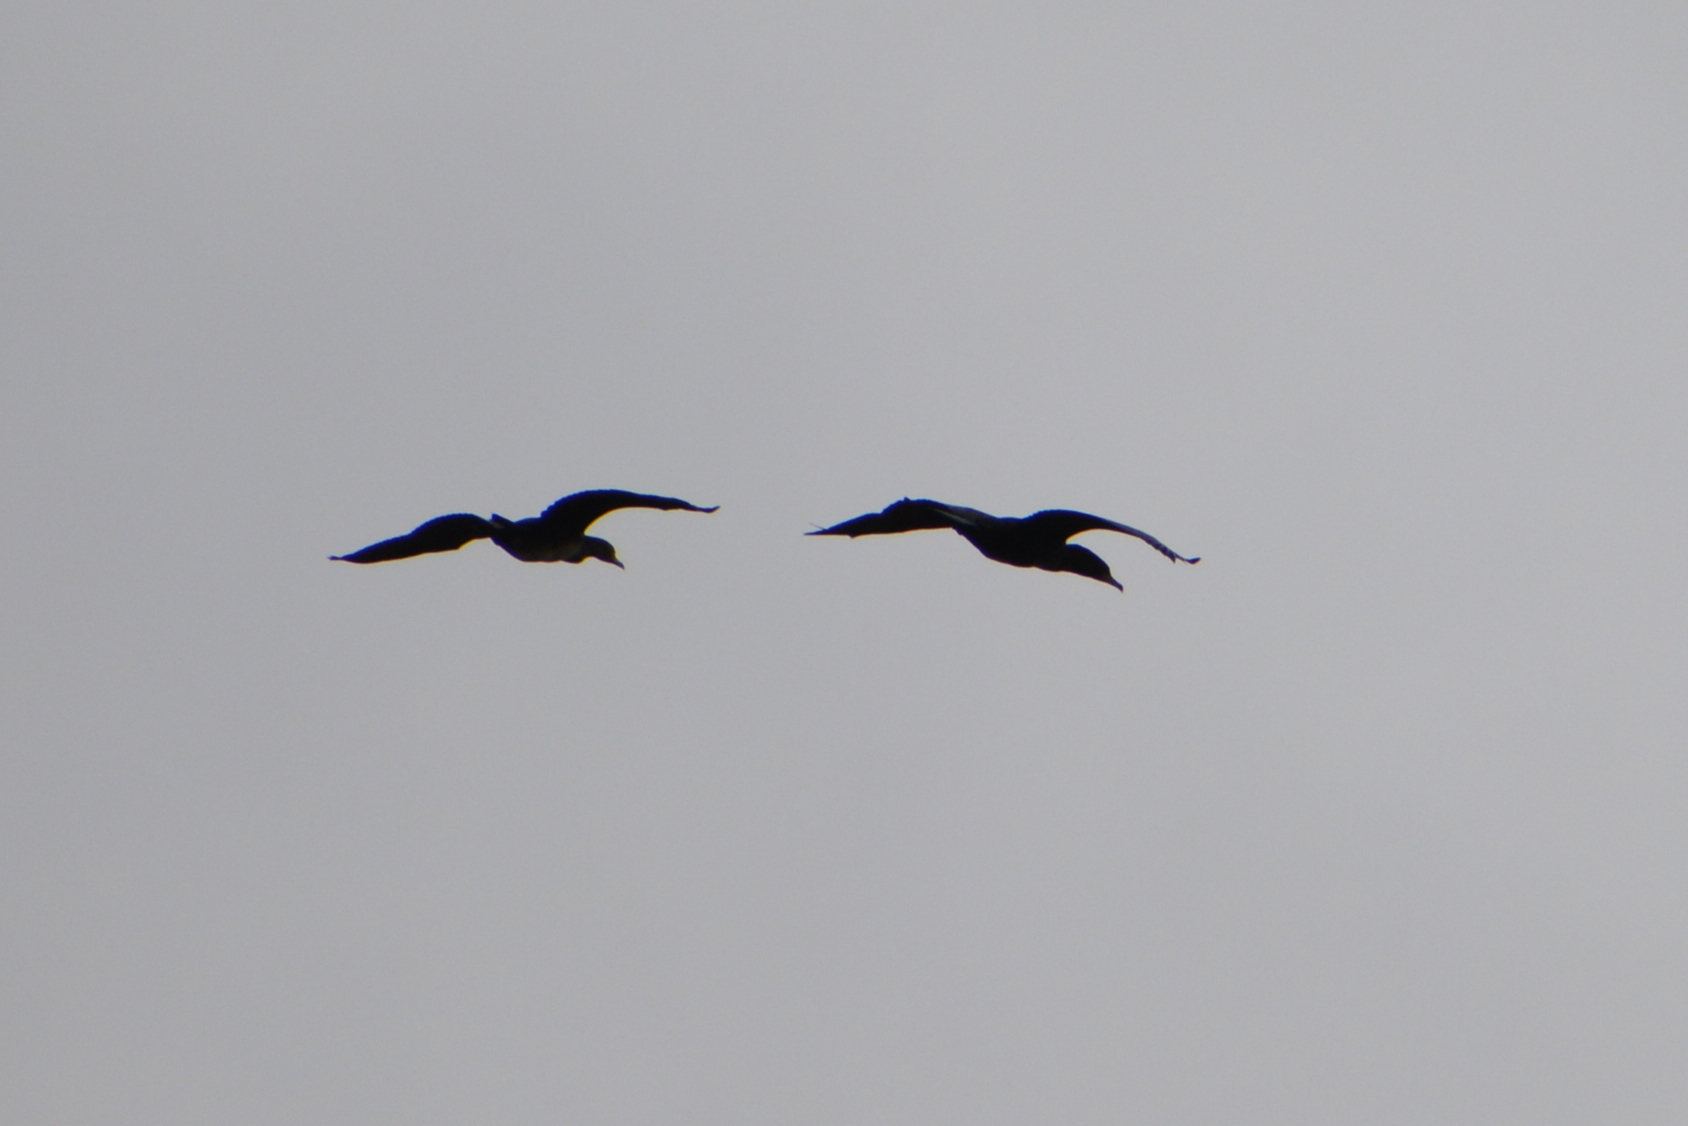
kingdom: Animalia
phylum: Chordata
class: Aves
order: Suliformes
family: Phalacrocoracidae
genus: Phalacrocorax
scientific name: Phalacrocorax carbo
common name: Great cormorant
